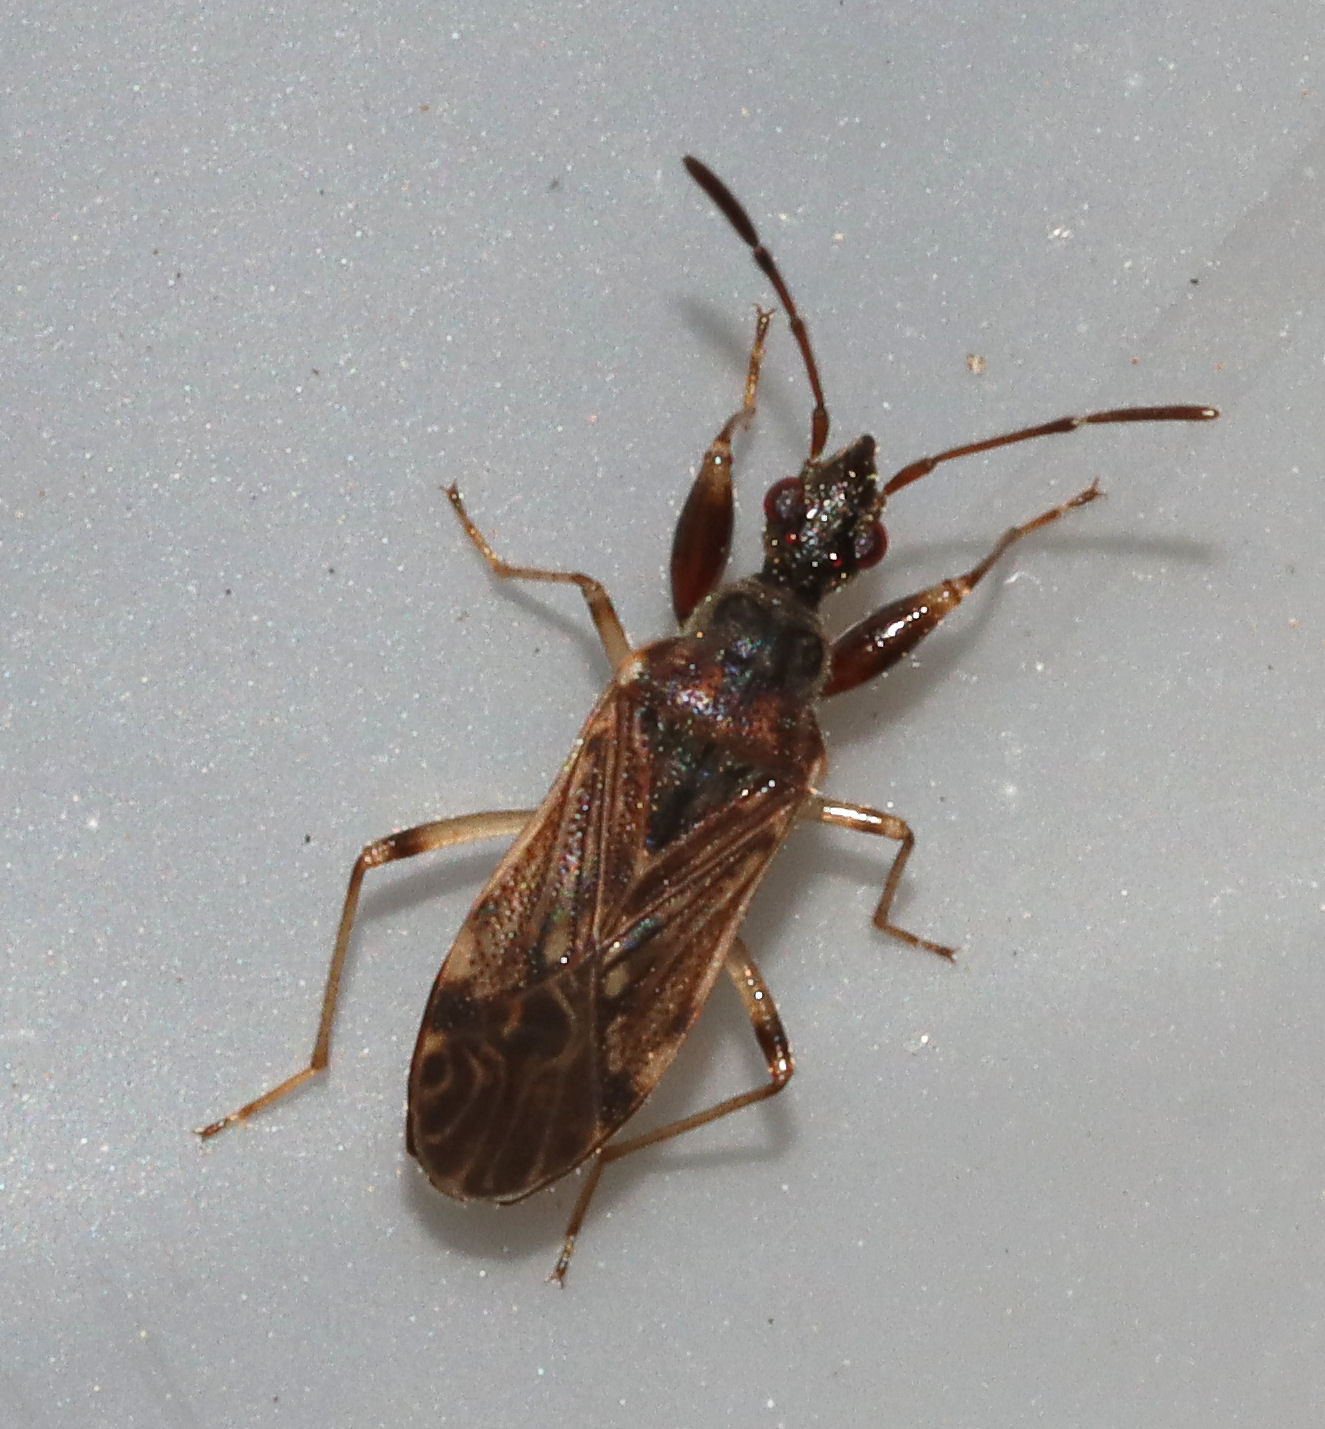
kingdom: Animalia
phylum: Arthropoda
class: Insecta
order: Hemiptera
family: Rhyparochromidae
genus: Heraeus
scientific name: Heraeus plebejus
